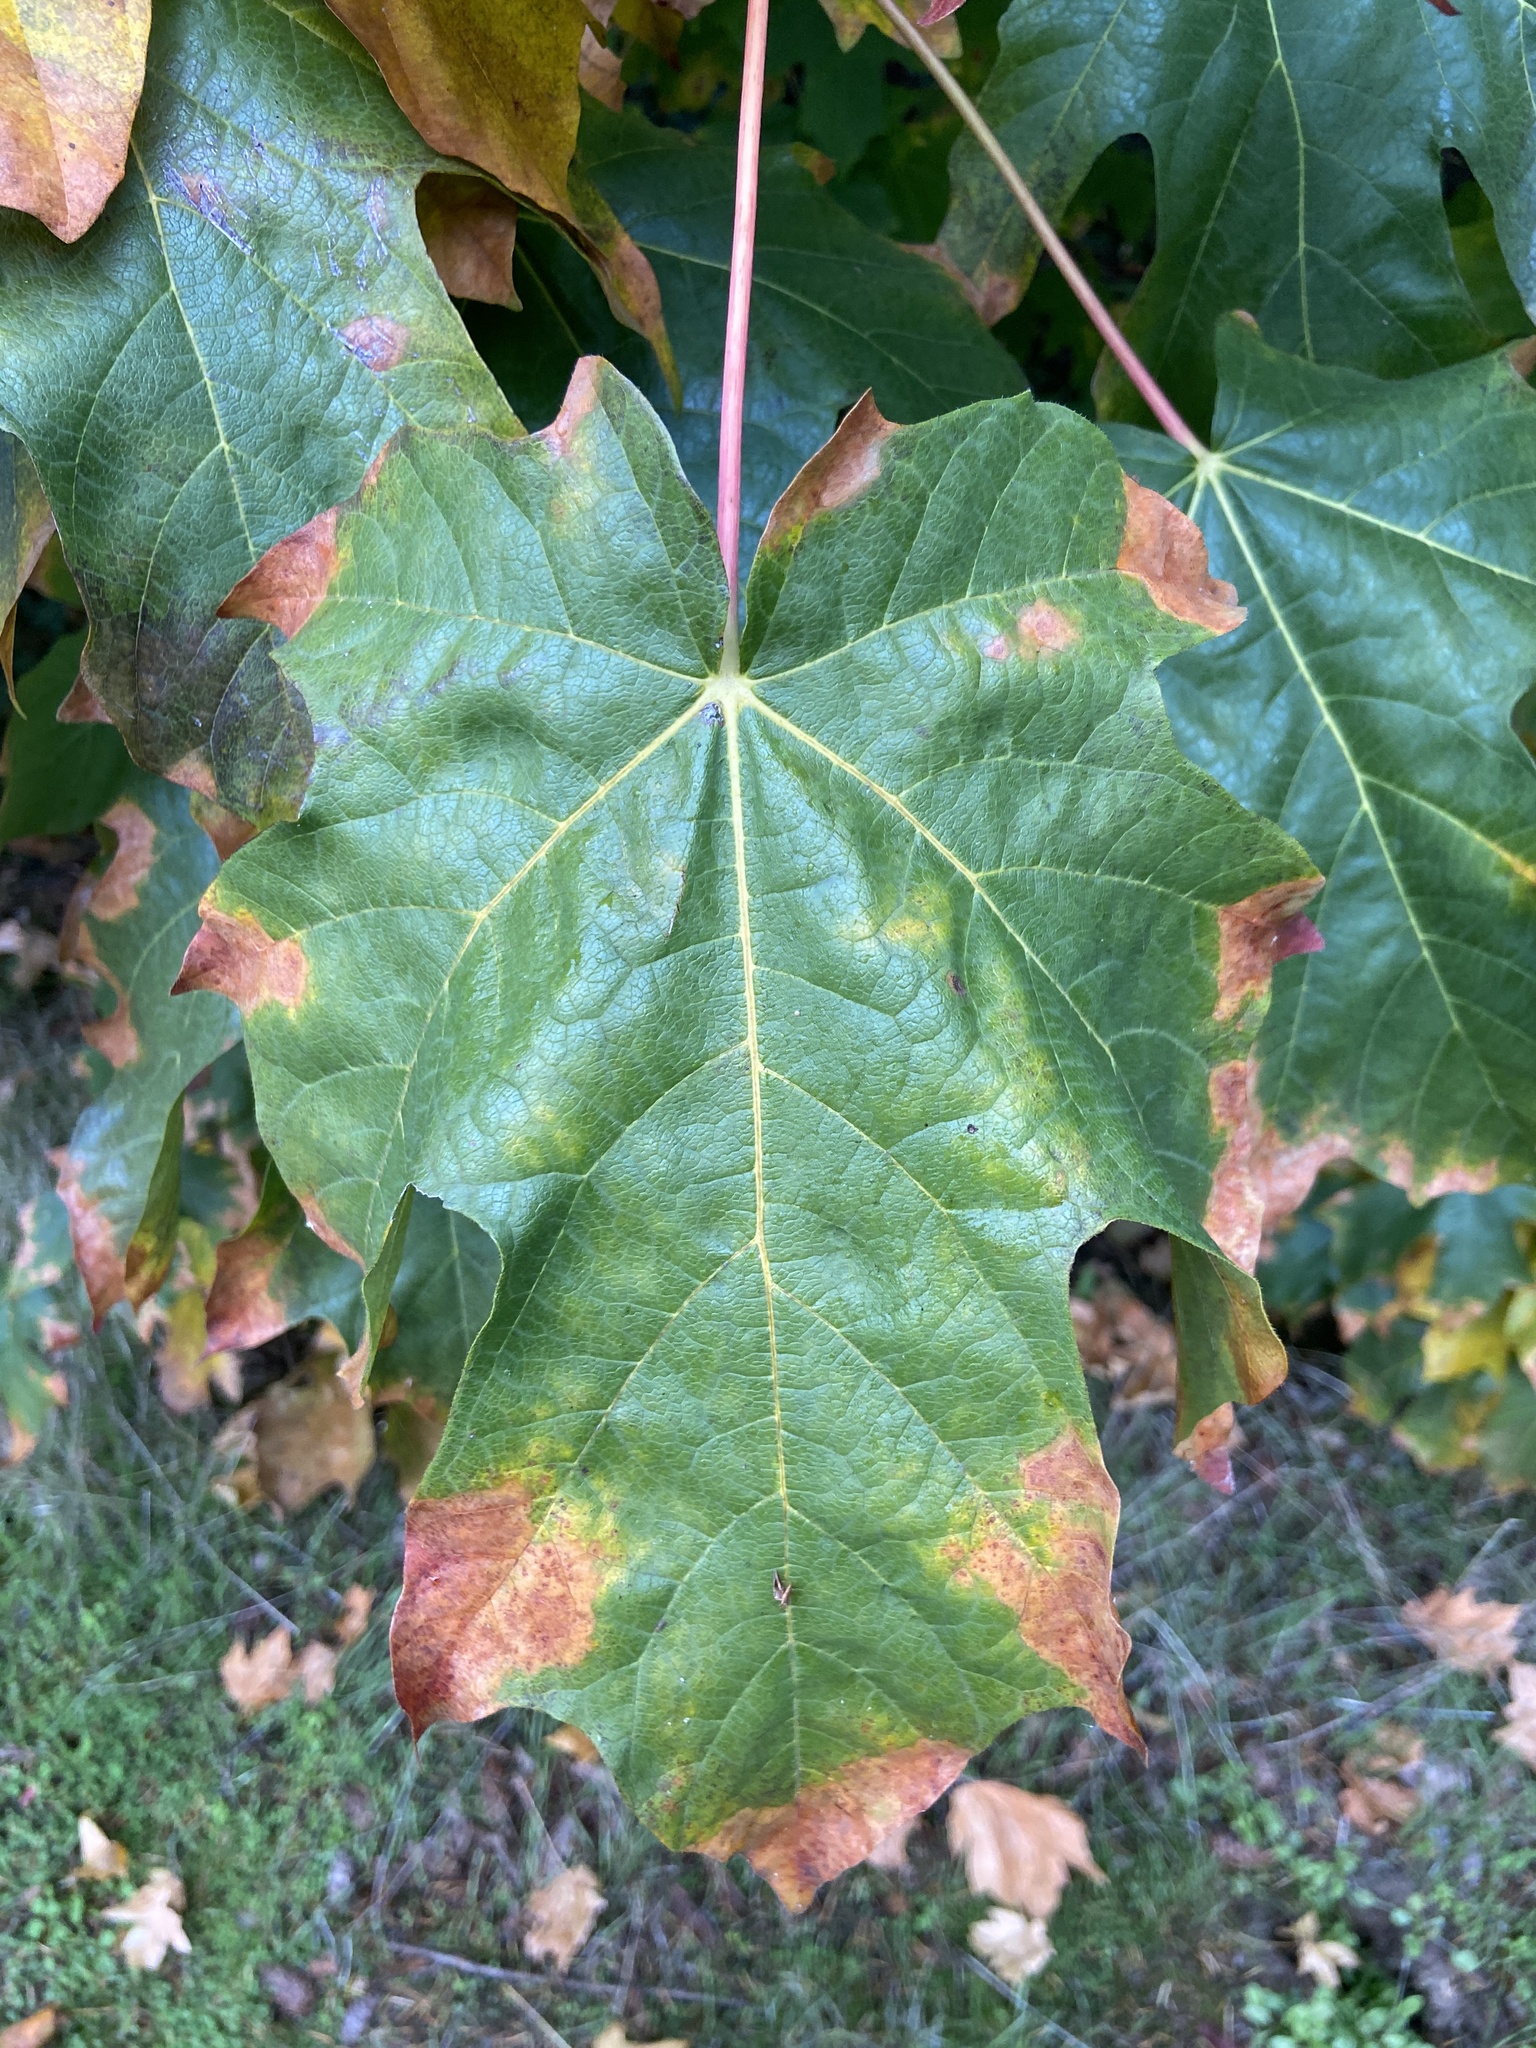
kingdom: Plantae
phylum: Tracheophyta
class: Magnoliopsida
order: Sapindales
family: Sapindaceae
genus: Acer
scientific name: Acer macrophyllum
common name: Oregon maple
